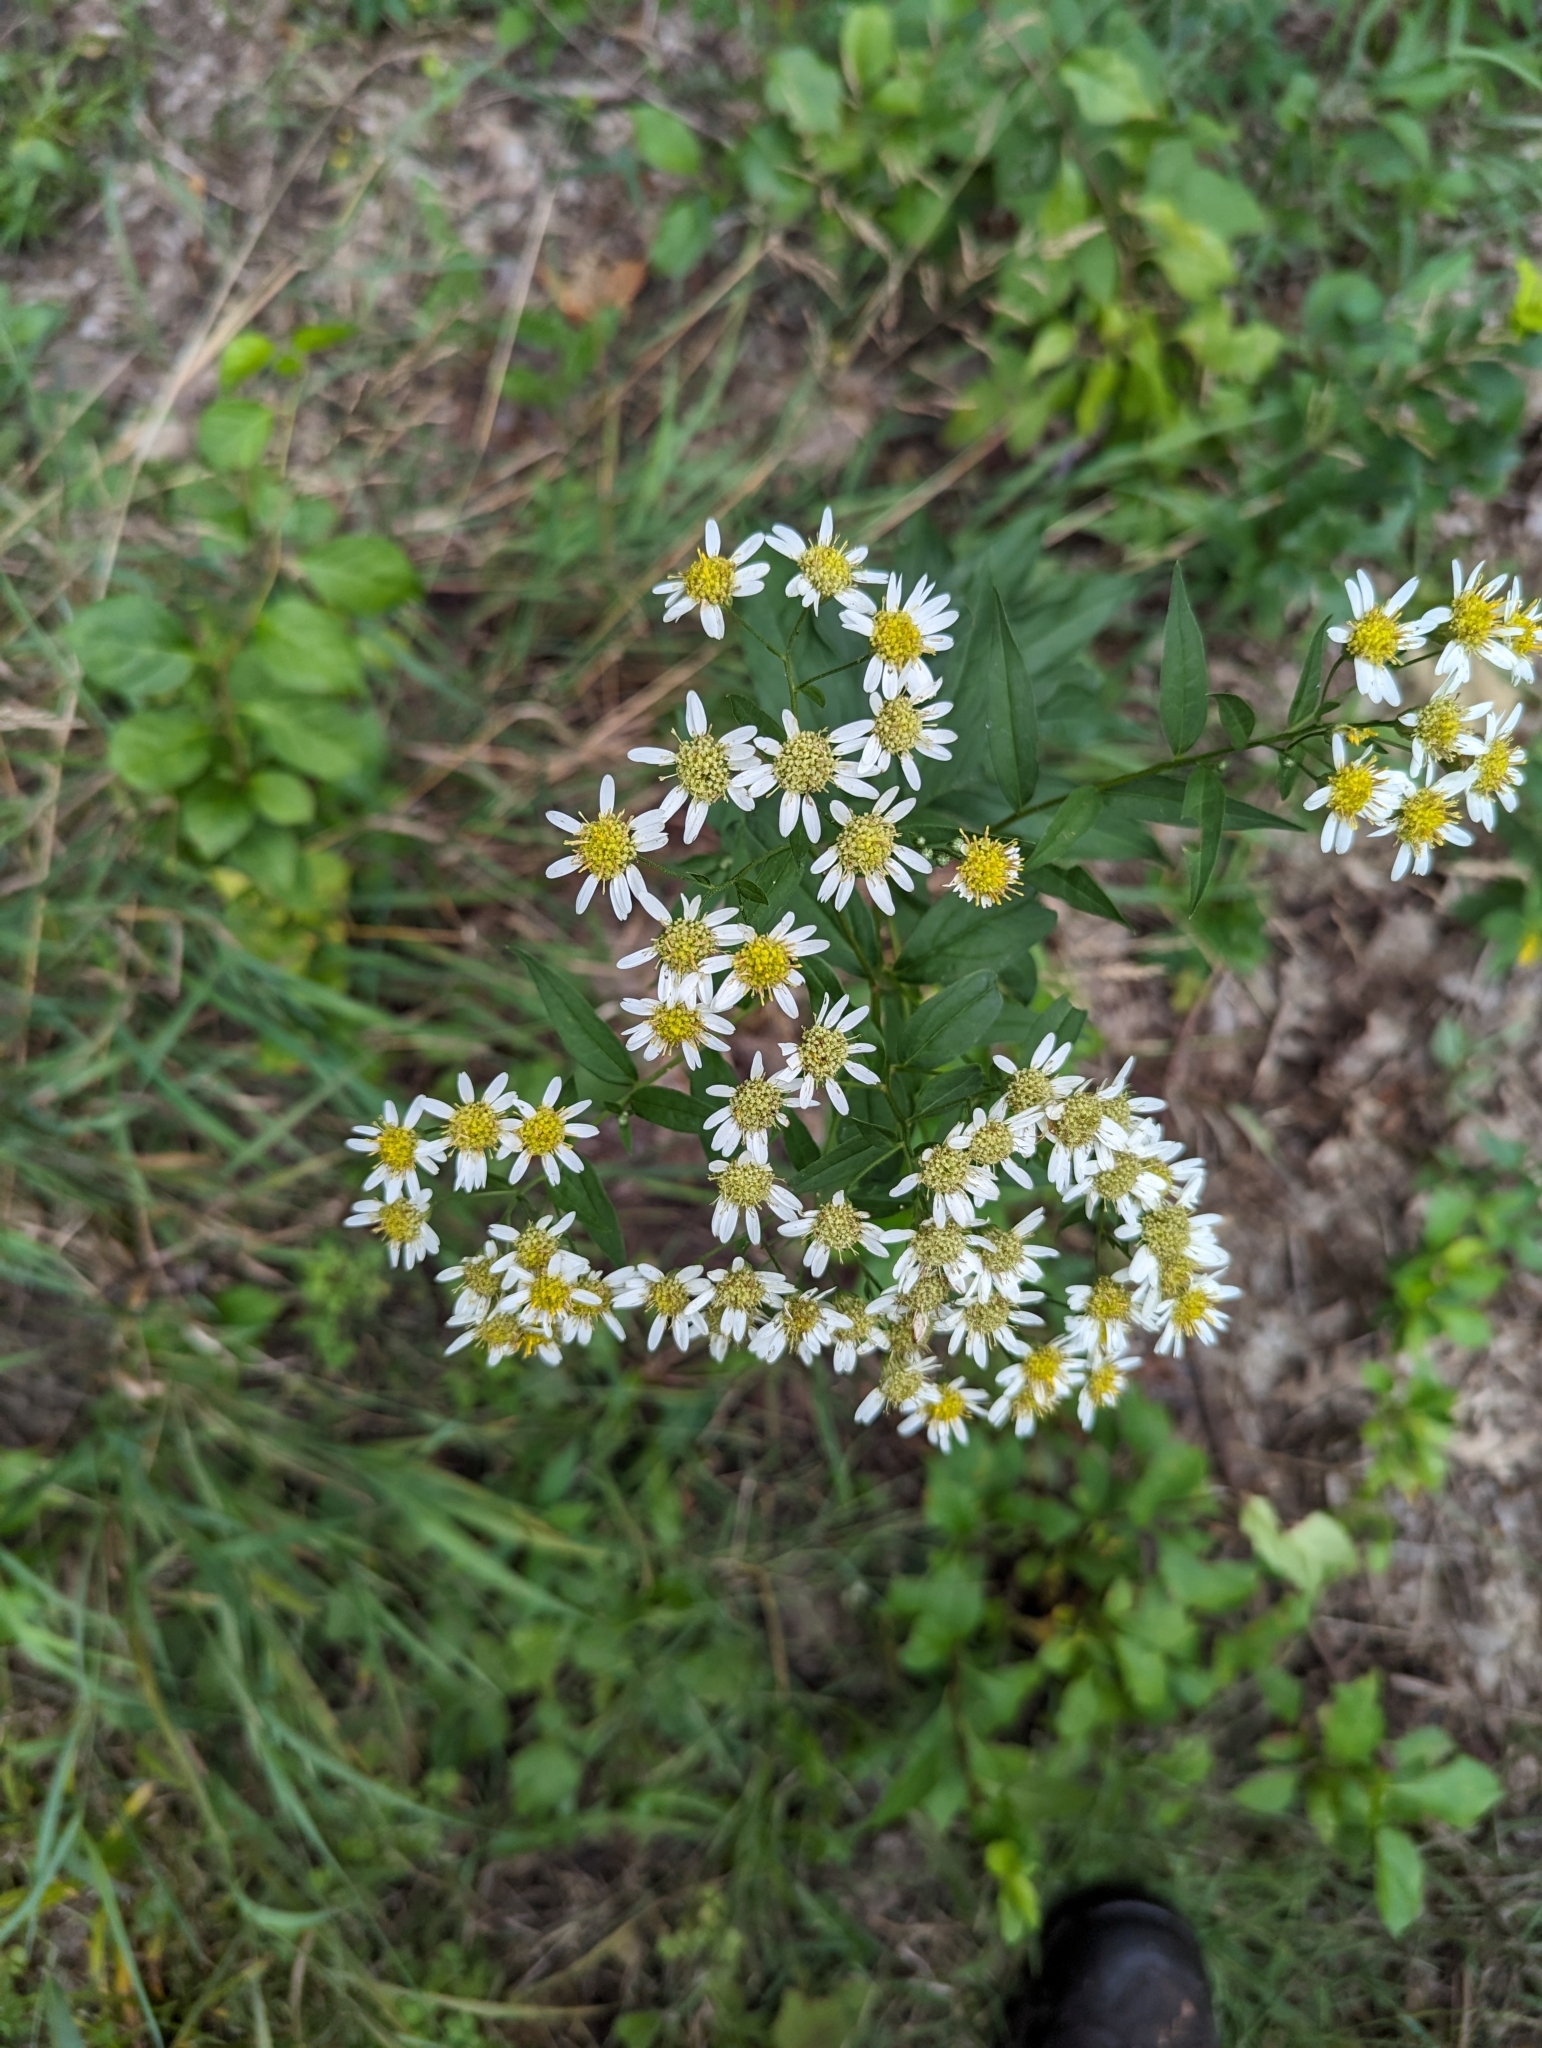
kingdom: Plantae
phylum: Tracheophyta
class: Magnoliopsida
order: Asterales
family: Asteraceae
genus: Doellingeria
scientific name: Doellingeria umbellata
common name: Flat-top white aster
